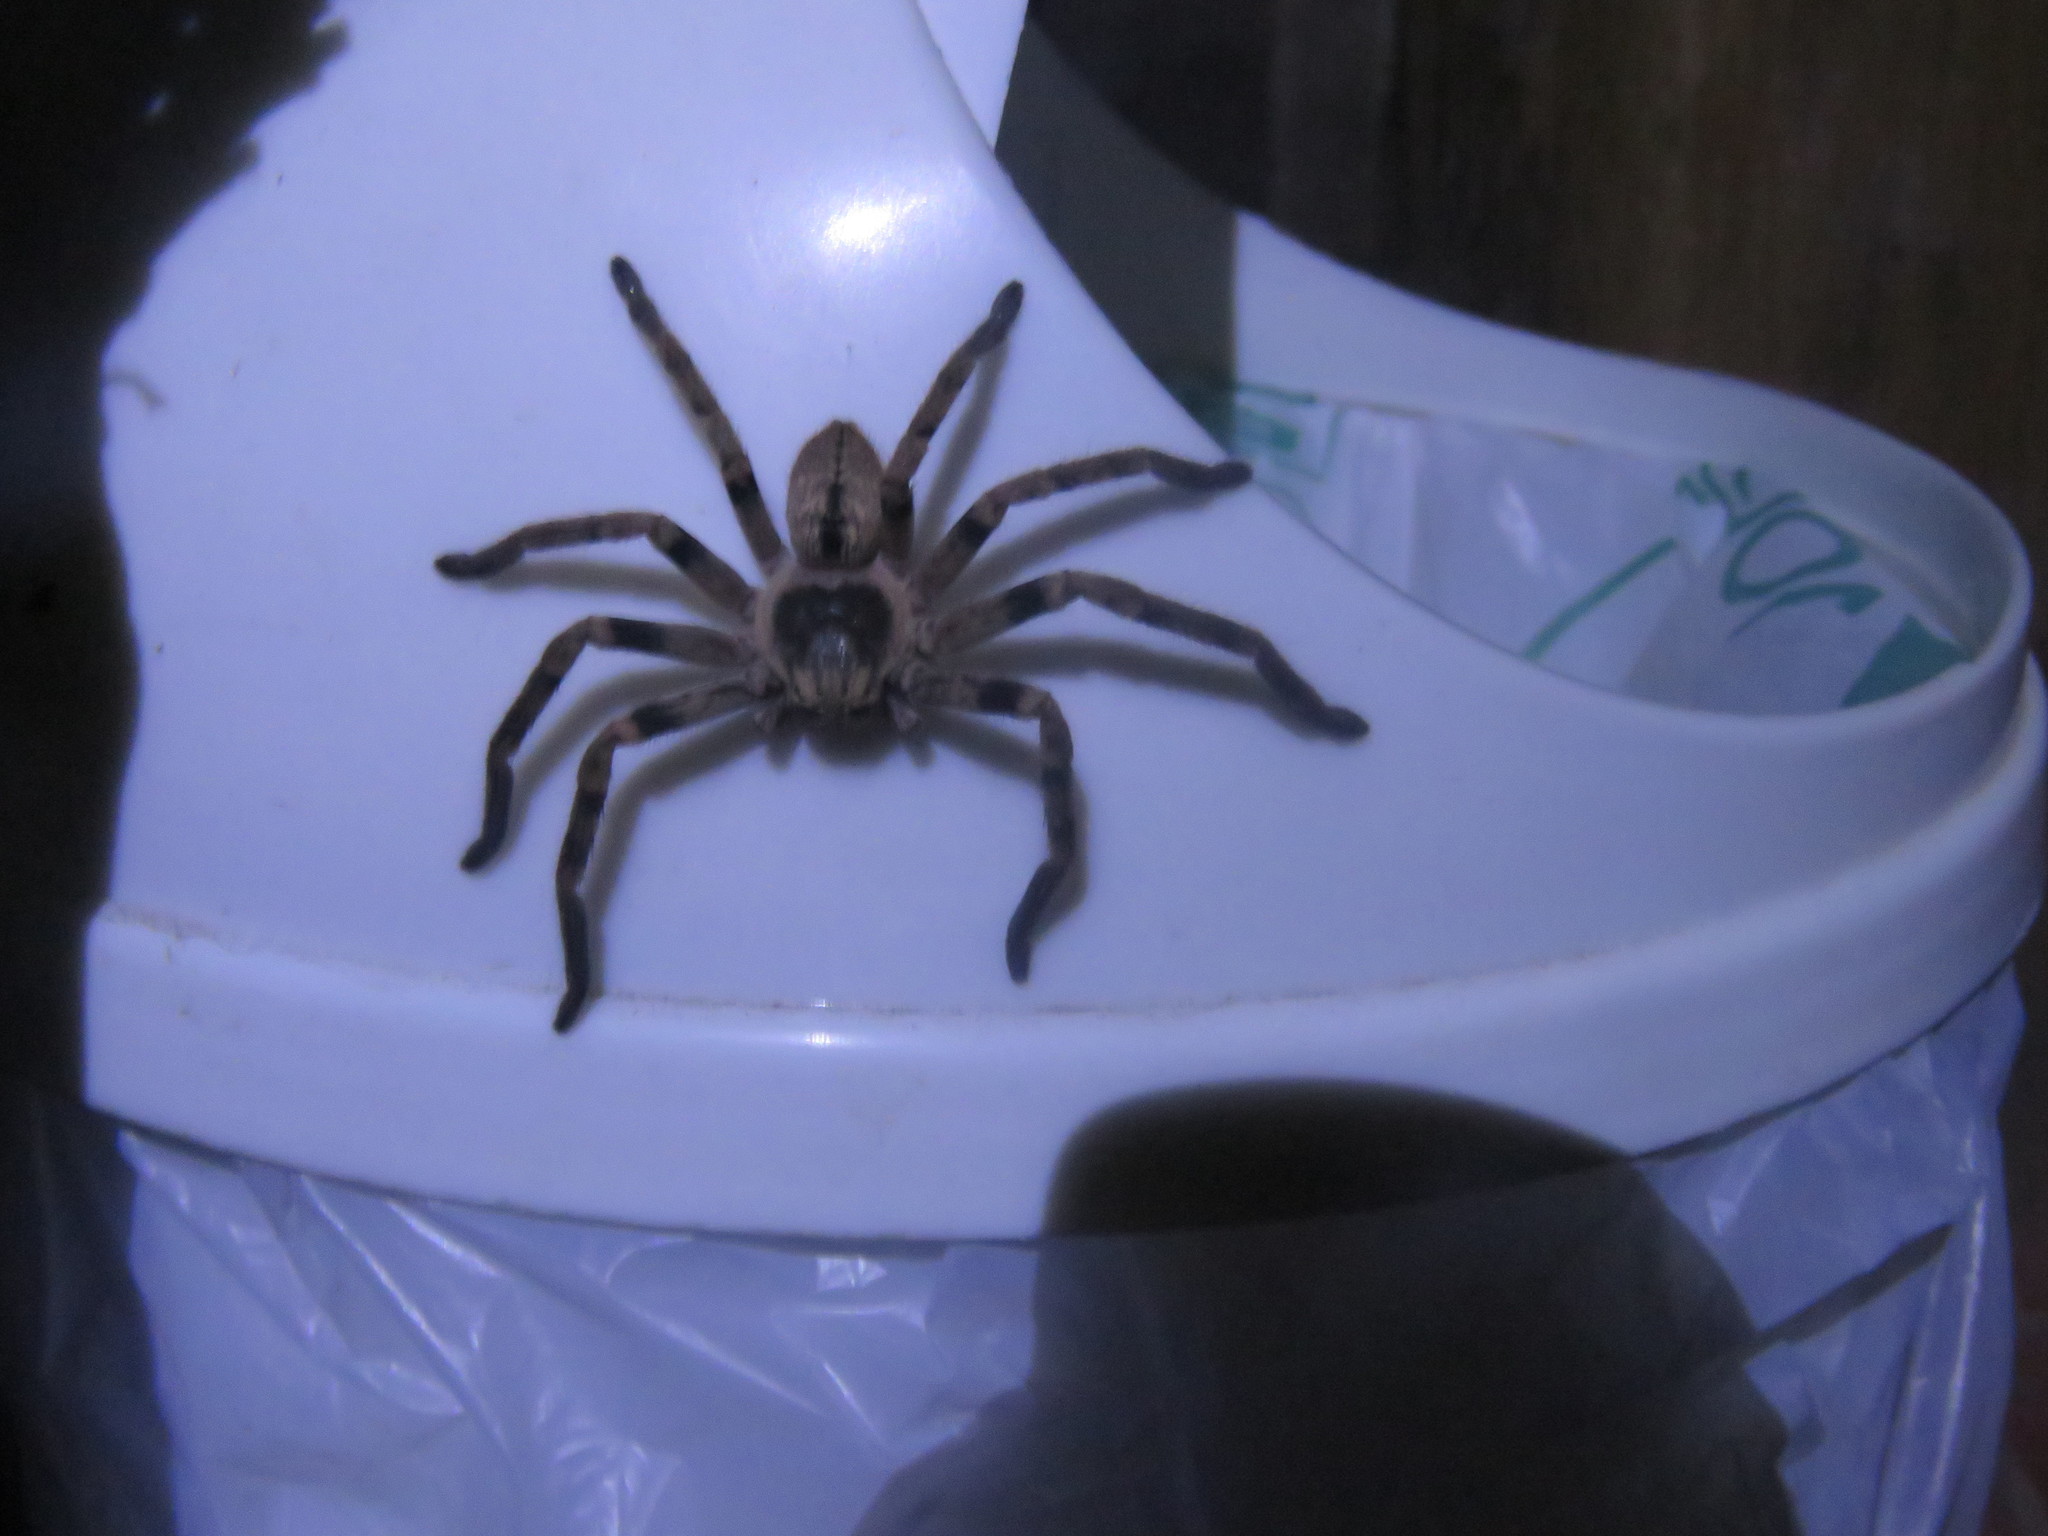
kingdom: Animalia
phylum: Arthropoda
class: Arachnida
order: Araneae
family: Sparassidae
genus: Polybetes
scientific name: Polybetes pythagoricus
